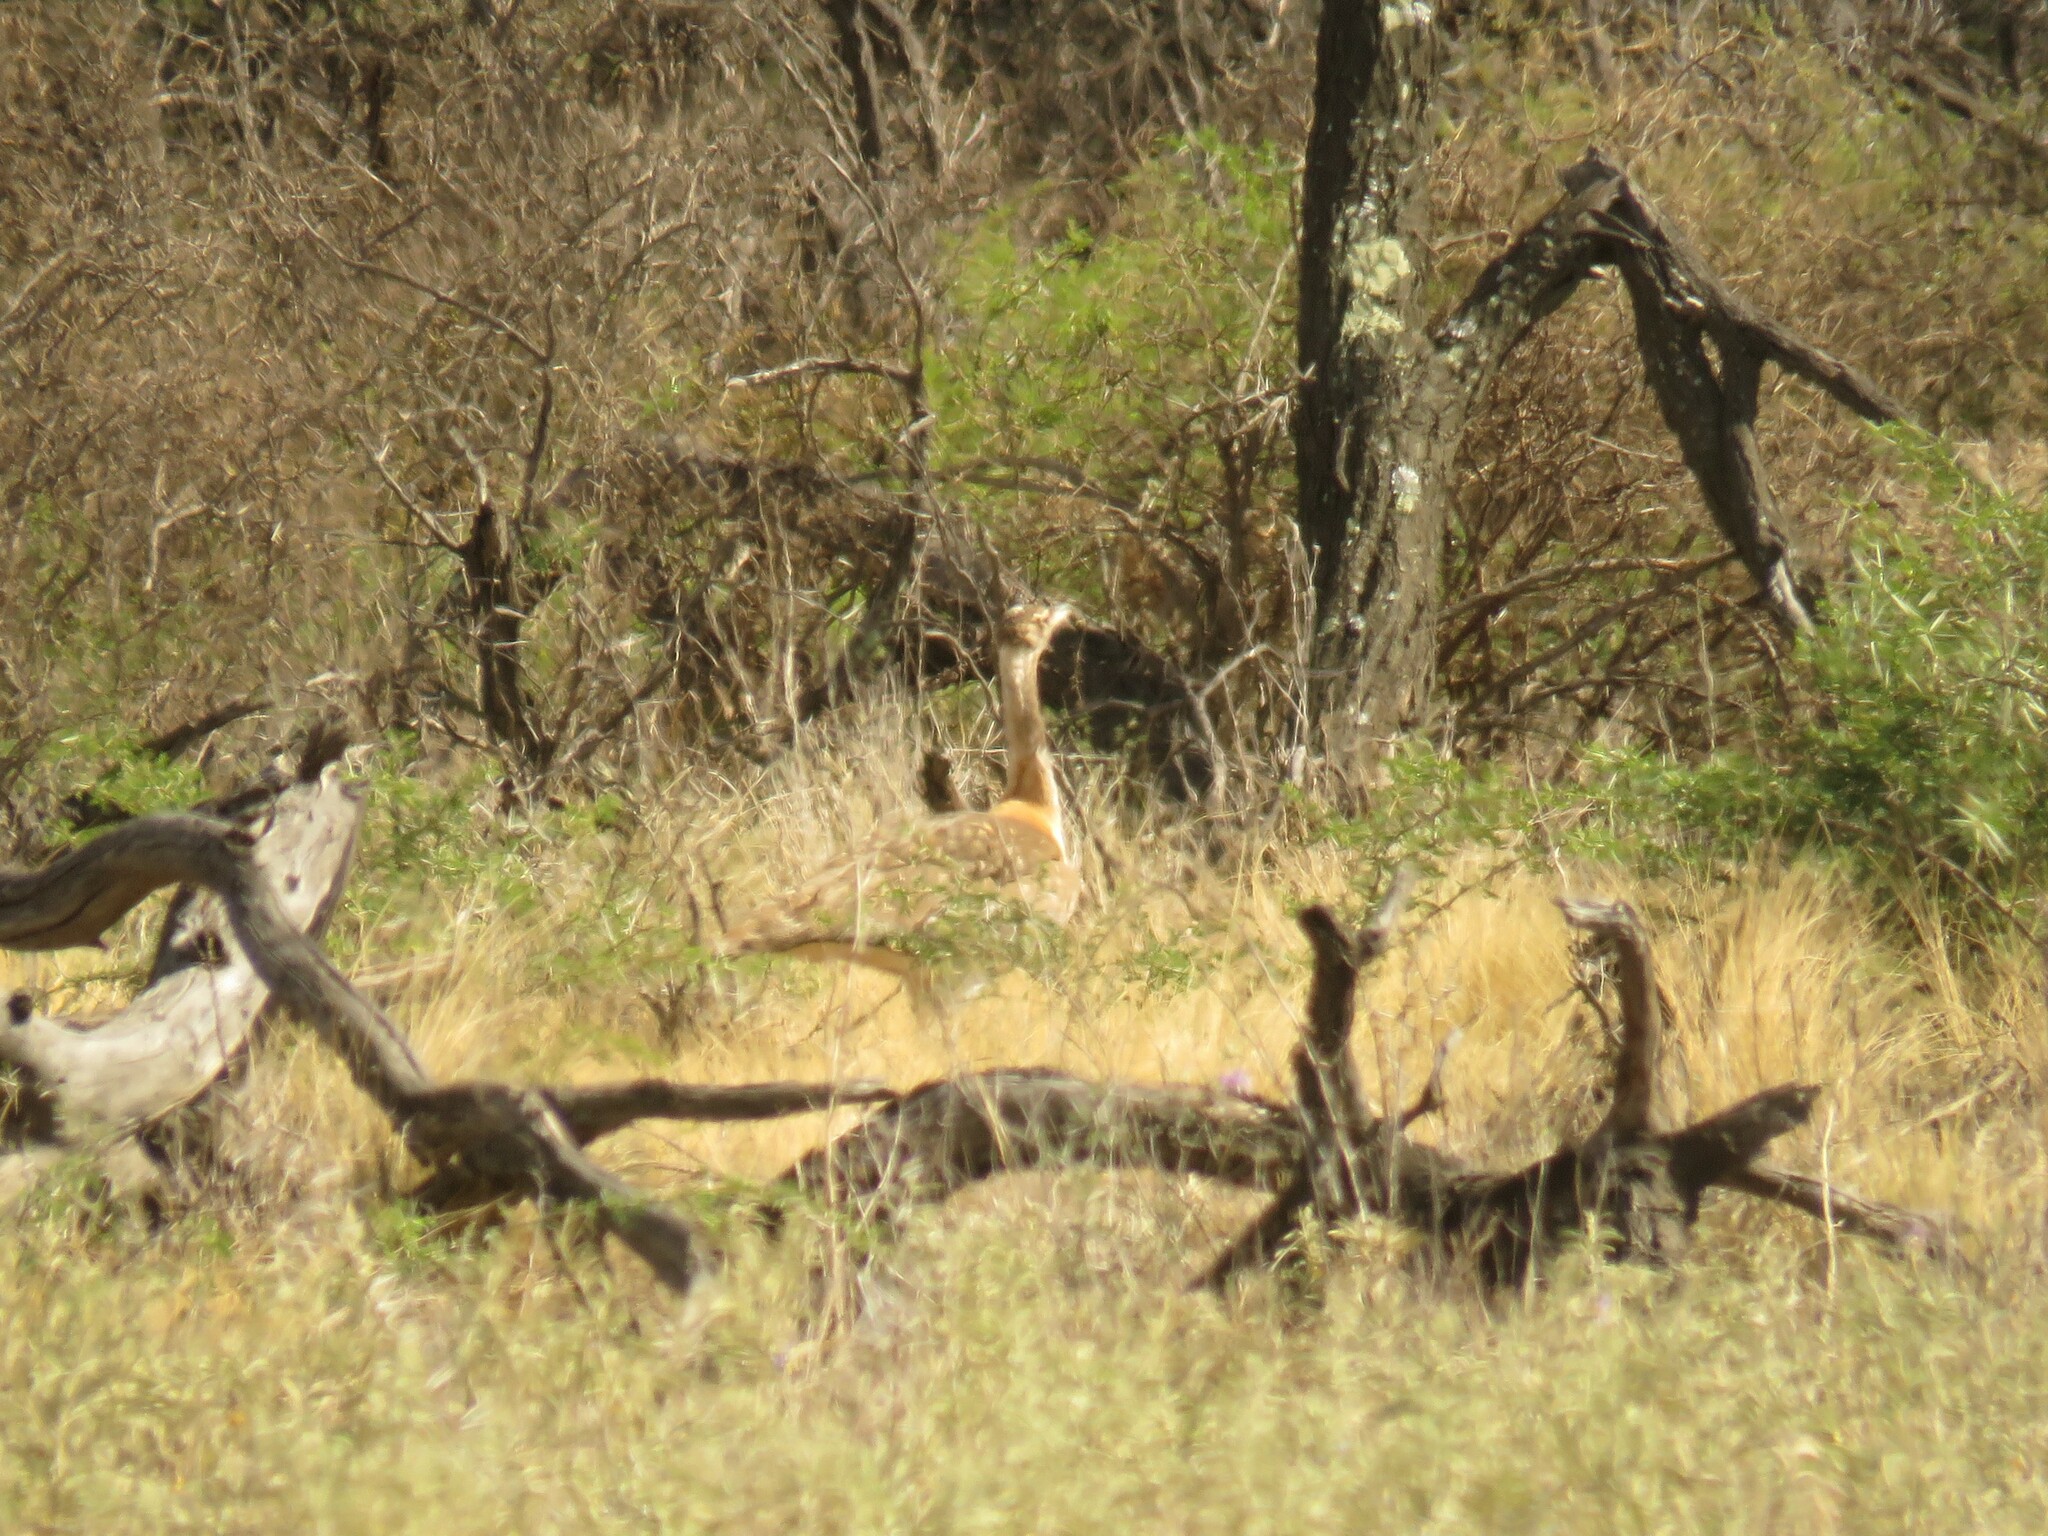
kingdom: Animalia
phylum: Chordata
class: Aves
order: Otidiformes
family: Otididae
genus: Neotis
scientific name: Neotis ludwigii
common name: Ludwig's bustard
